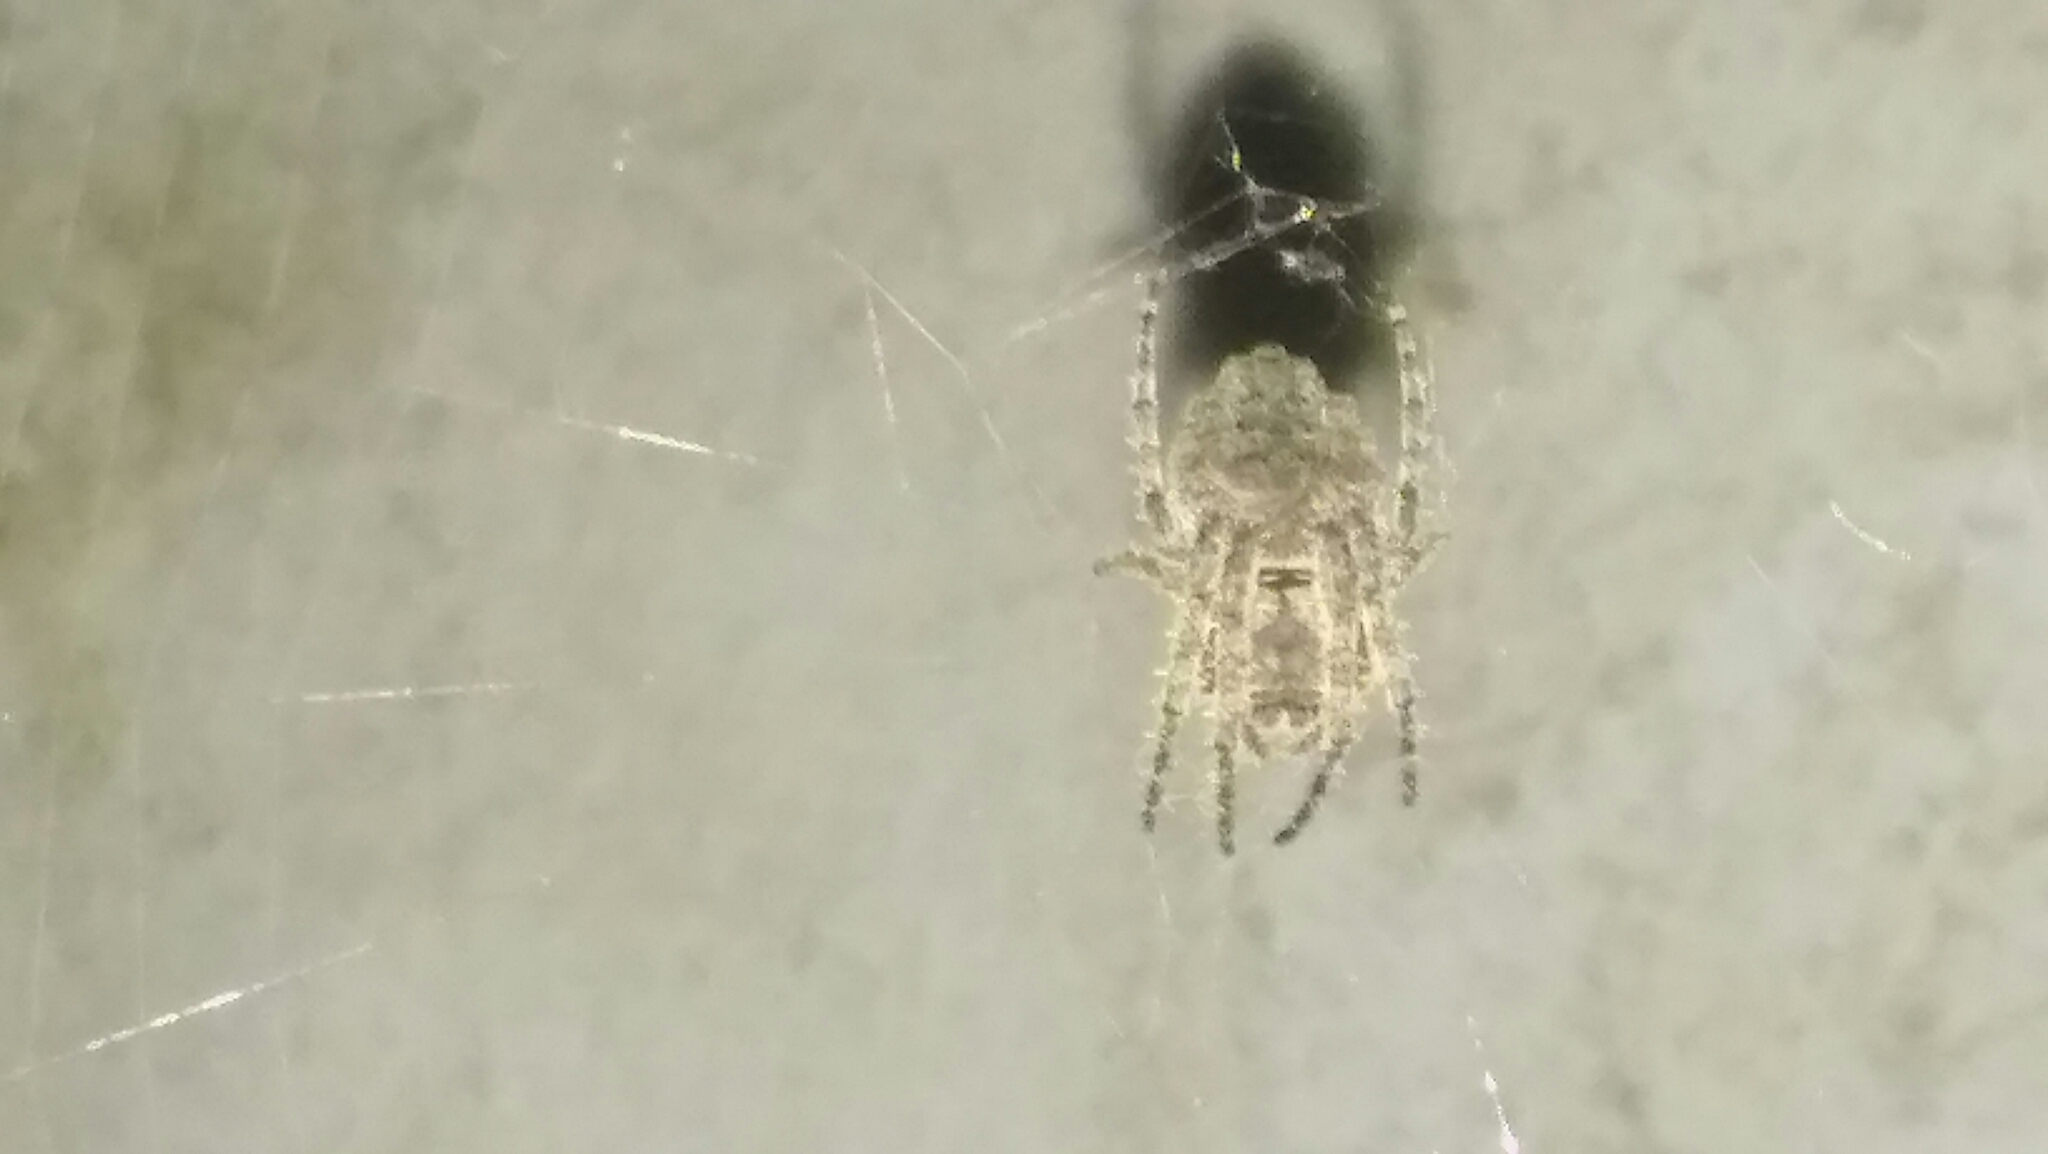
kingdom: Animalia
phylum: Arthropoda
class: Arachnida
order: Araneae
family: Araneidae
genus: Parawixia
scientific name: Parawixia audax
